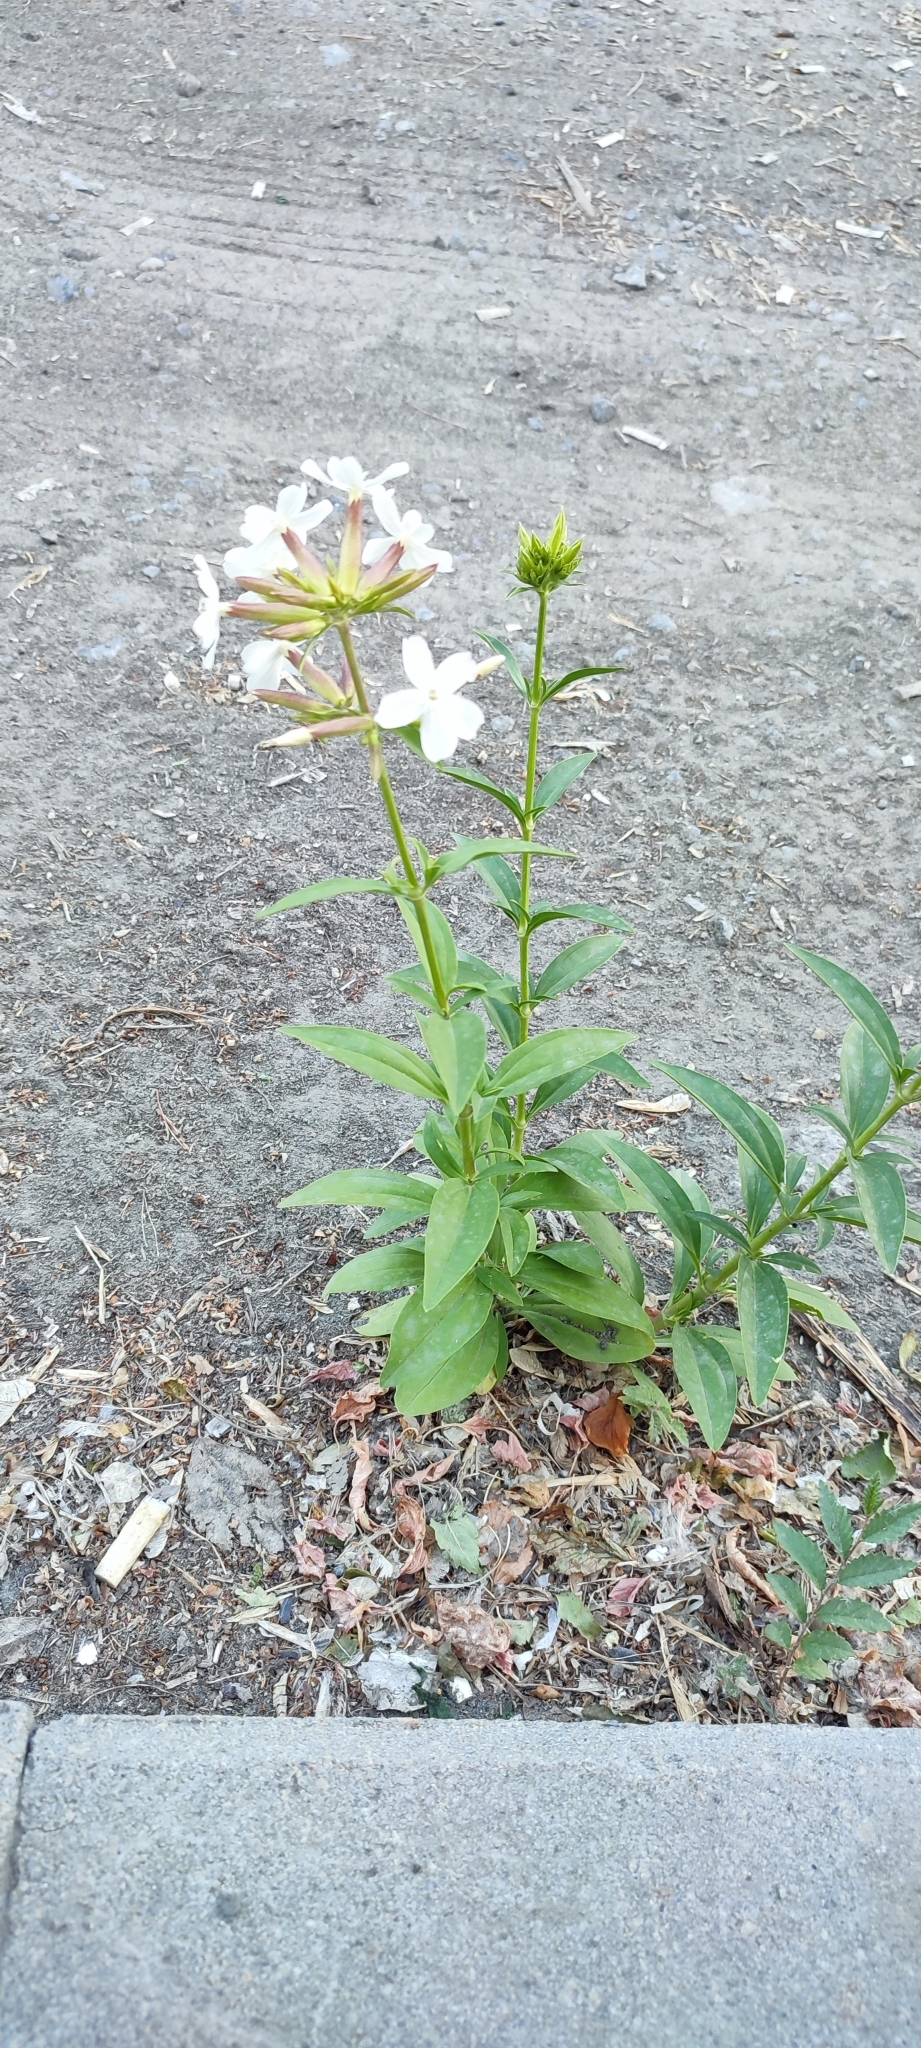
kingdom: Plantae
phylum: Tracheophyta
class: Magnoliopsida
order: Caryophyllales
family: Caryophyllaceae
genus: Saponaria
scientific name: Saponaria officinalis
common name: Soapwort
